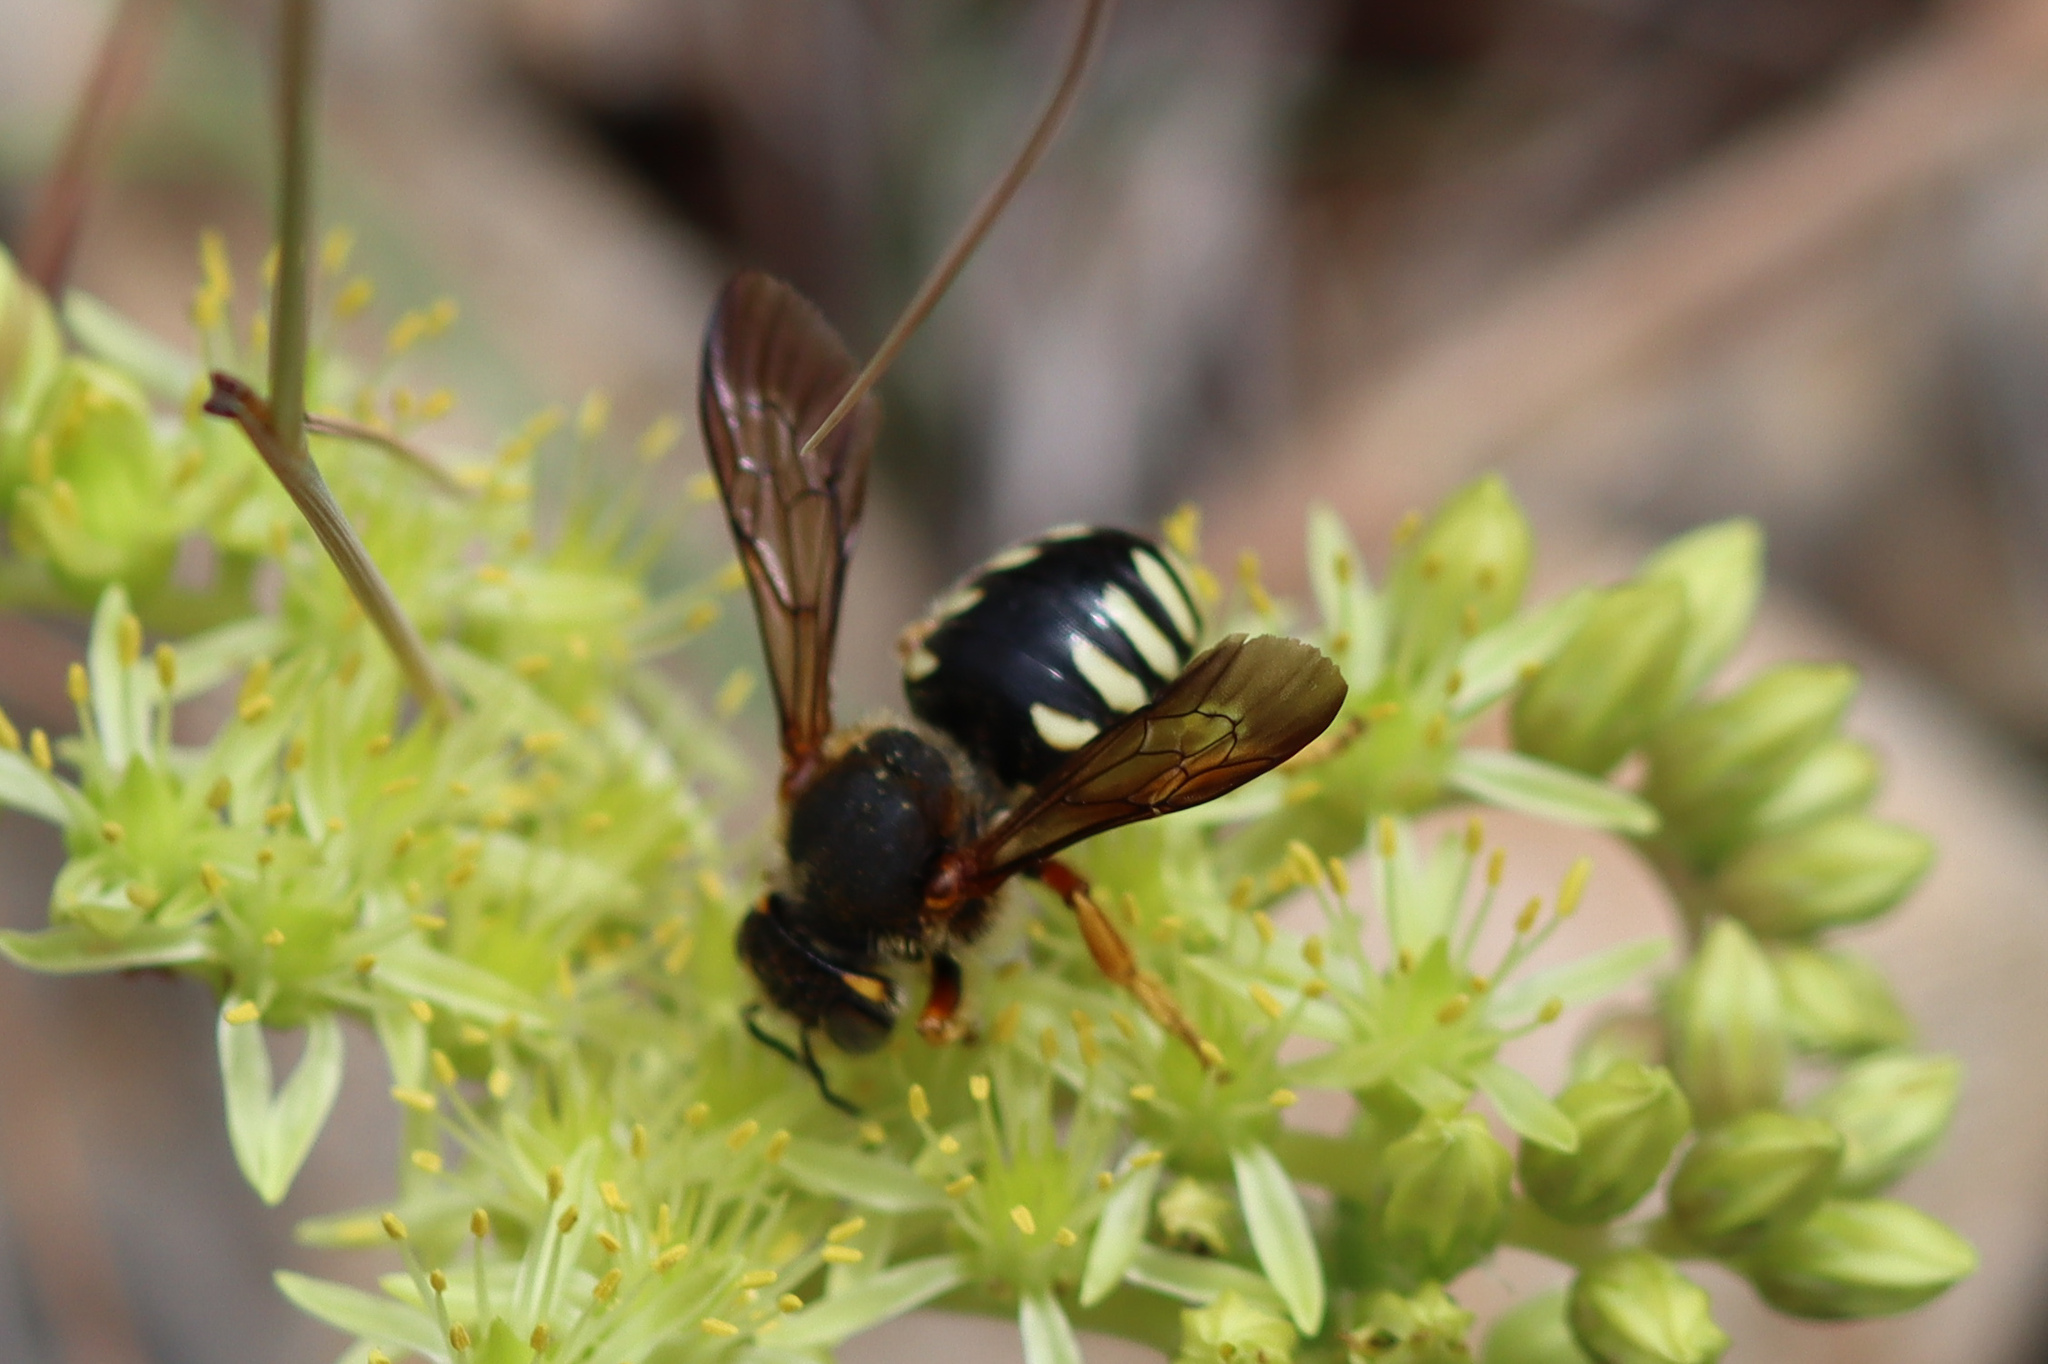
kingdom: Animalia
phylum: Arthropoda
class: Insecta
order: Hymenoptera
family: Megachilidae
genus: Rhodanthidium
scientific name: Rhodanthidium septemdentatum
